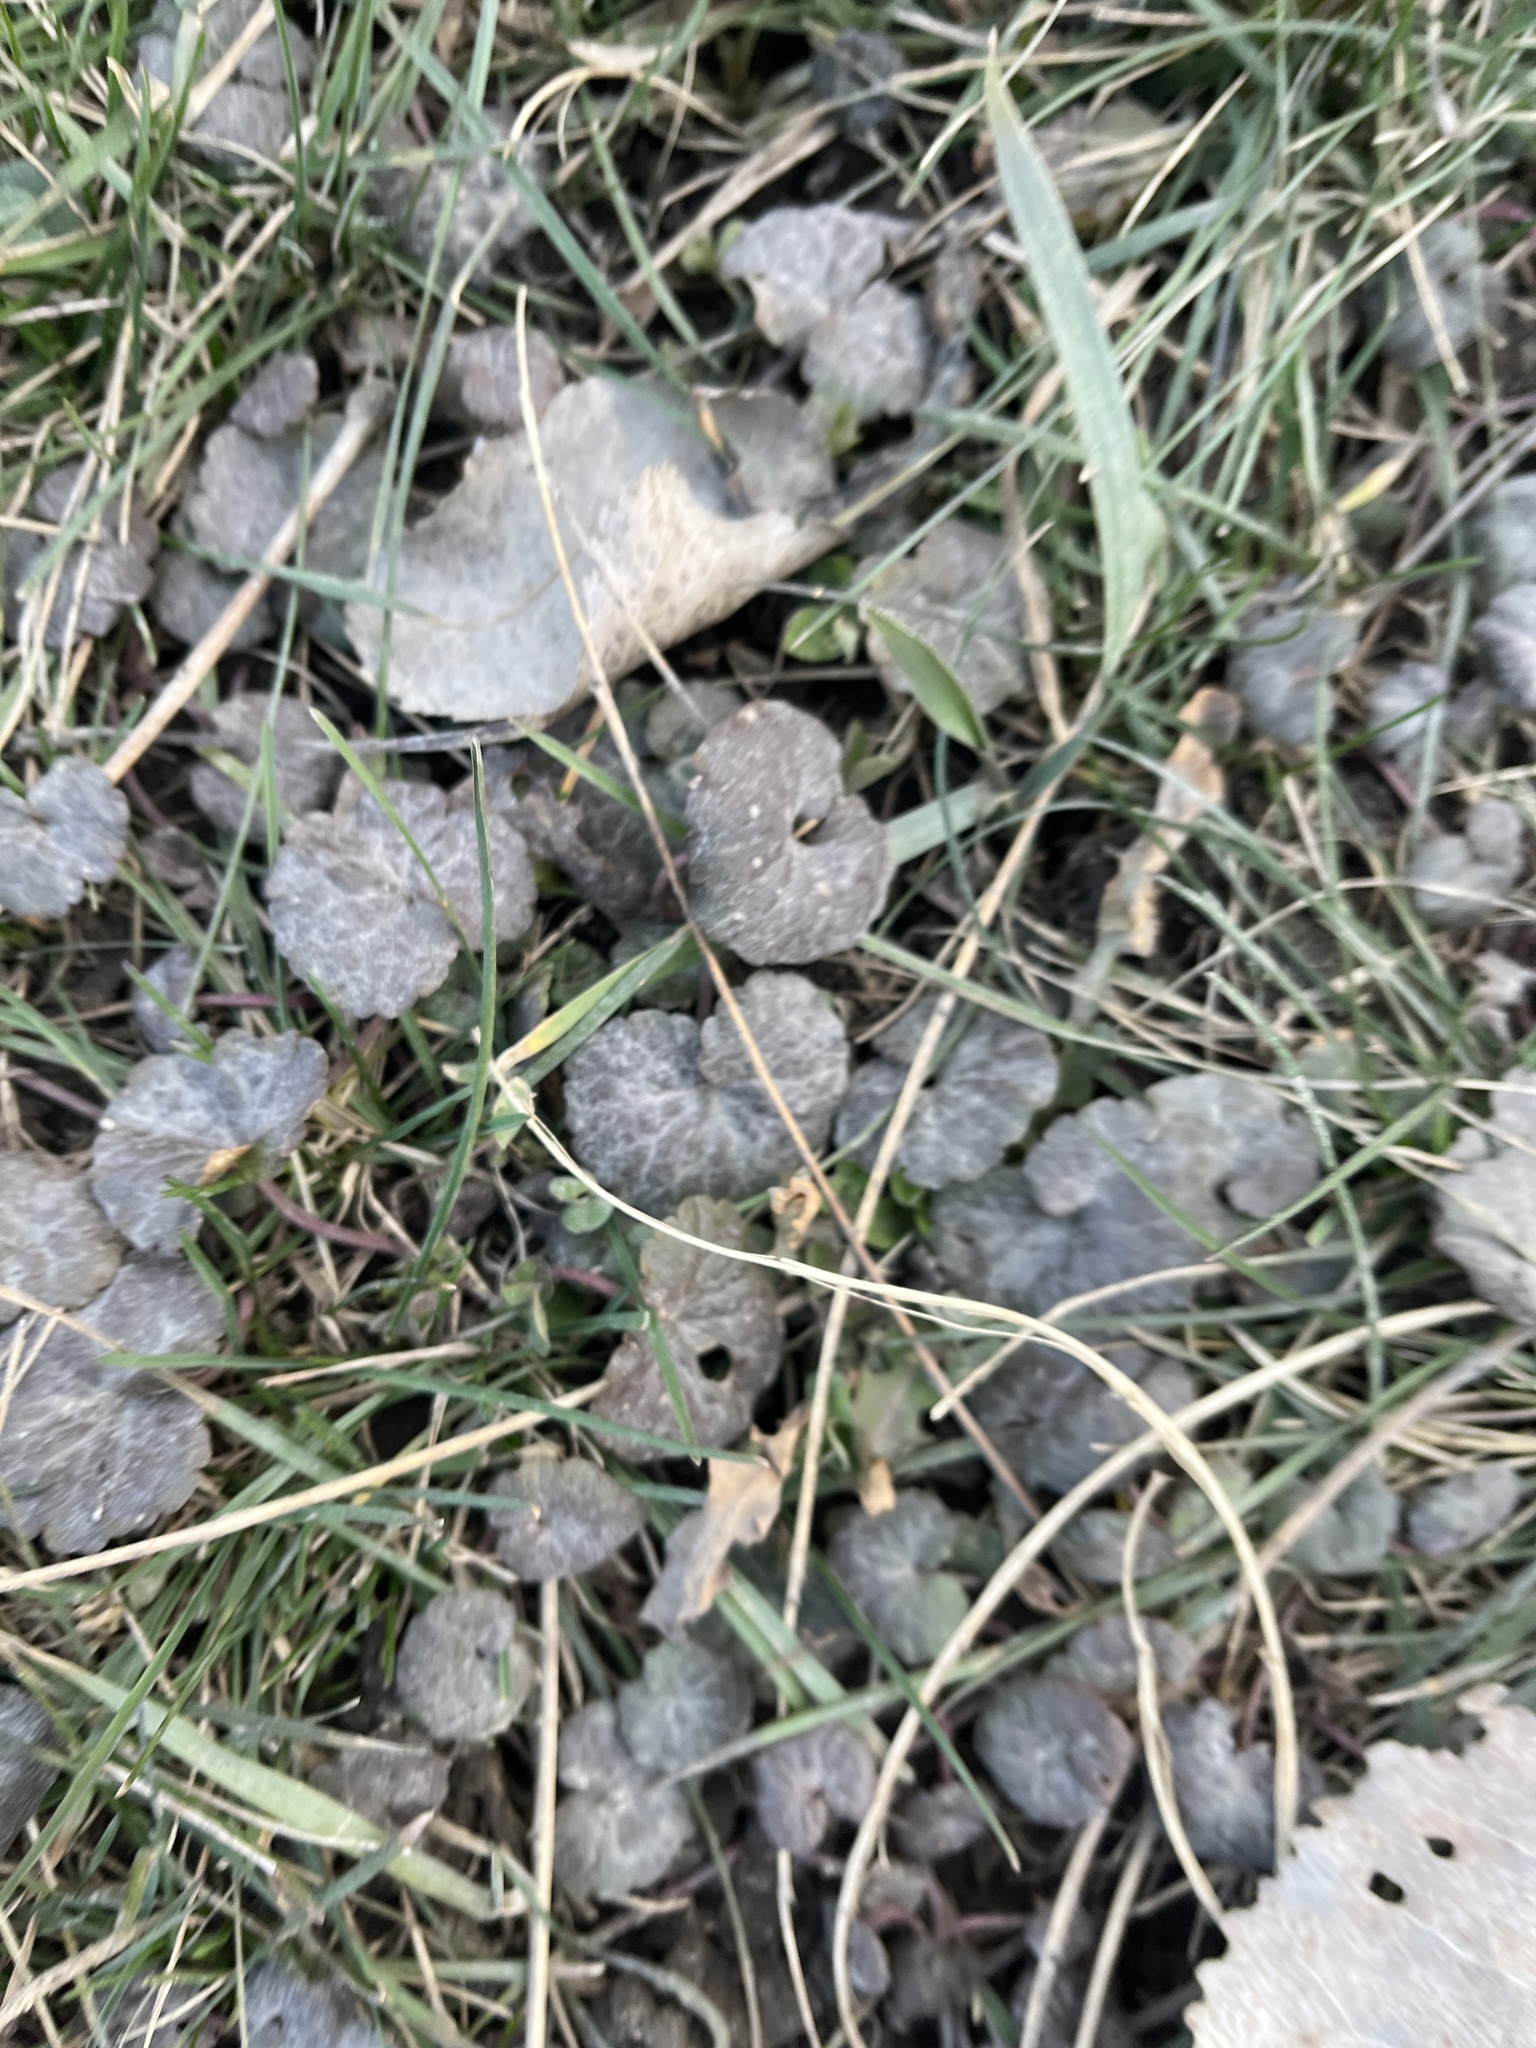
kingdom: Plantae
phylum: Tracheophyta
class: Magnoliopsida
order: Lamiales
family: Lamiaceae
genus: Glechoma
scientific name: Glechoma hederacea
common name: Ground ivy
